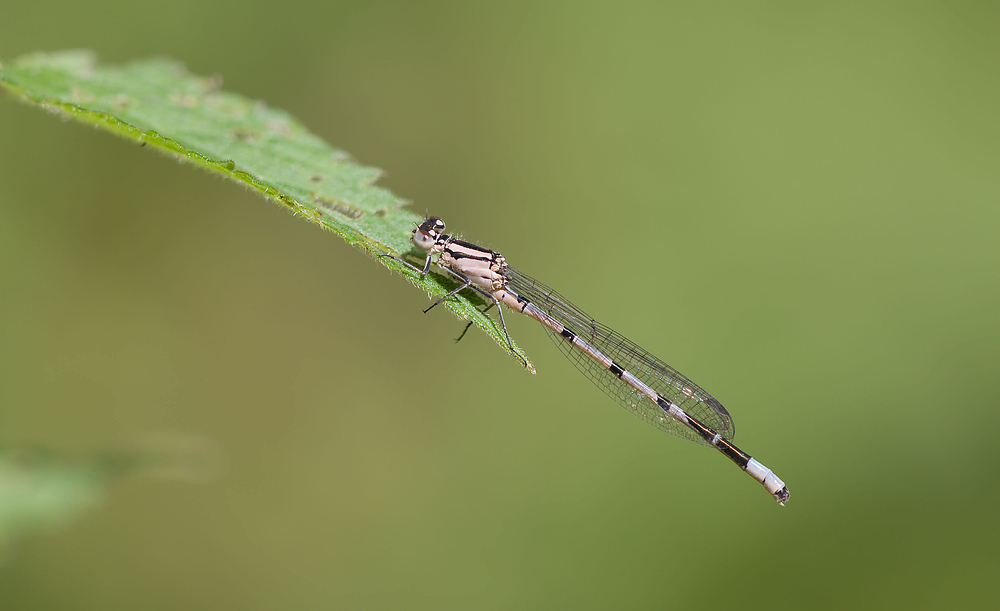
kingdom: Animalia
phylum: Arthropoda
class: Insecta
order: Odonata
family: Coenagrionidae
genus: Enallagma
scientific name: Enallagma cyathigerum
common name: Common blue damselfly
